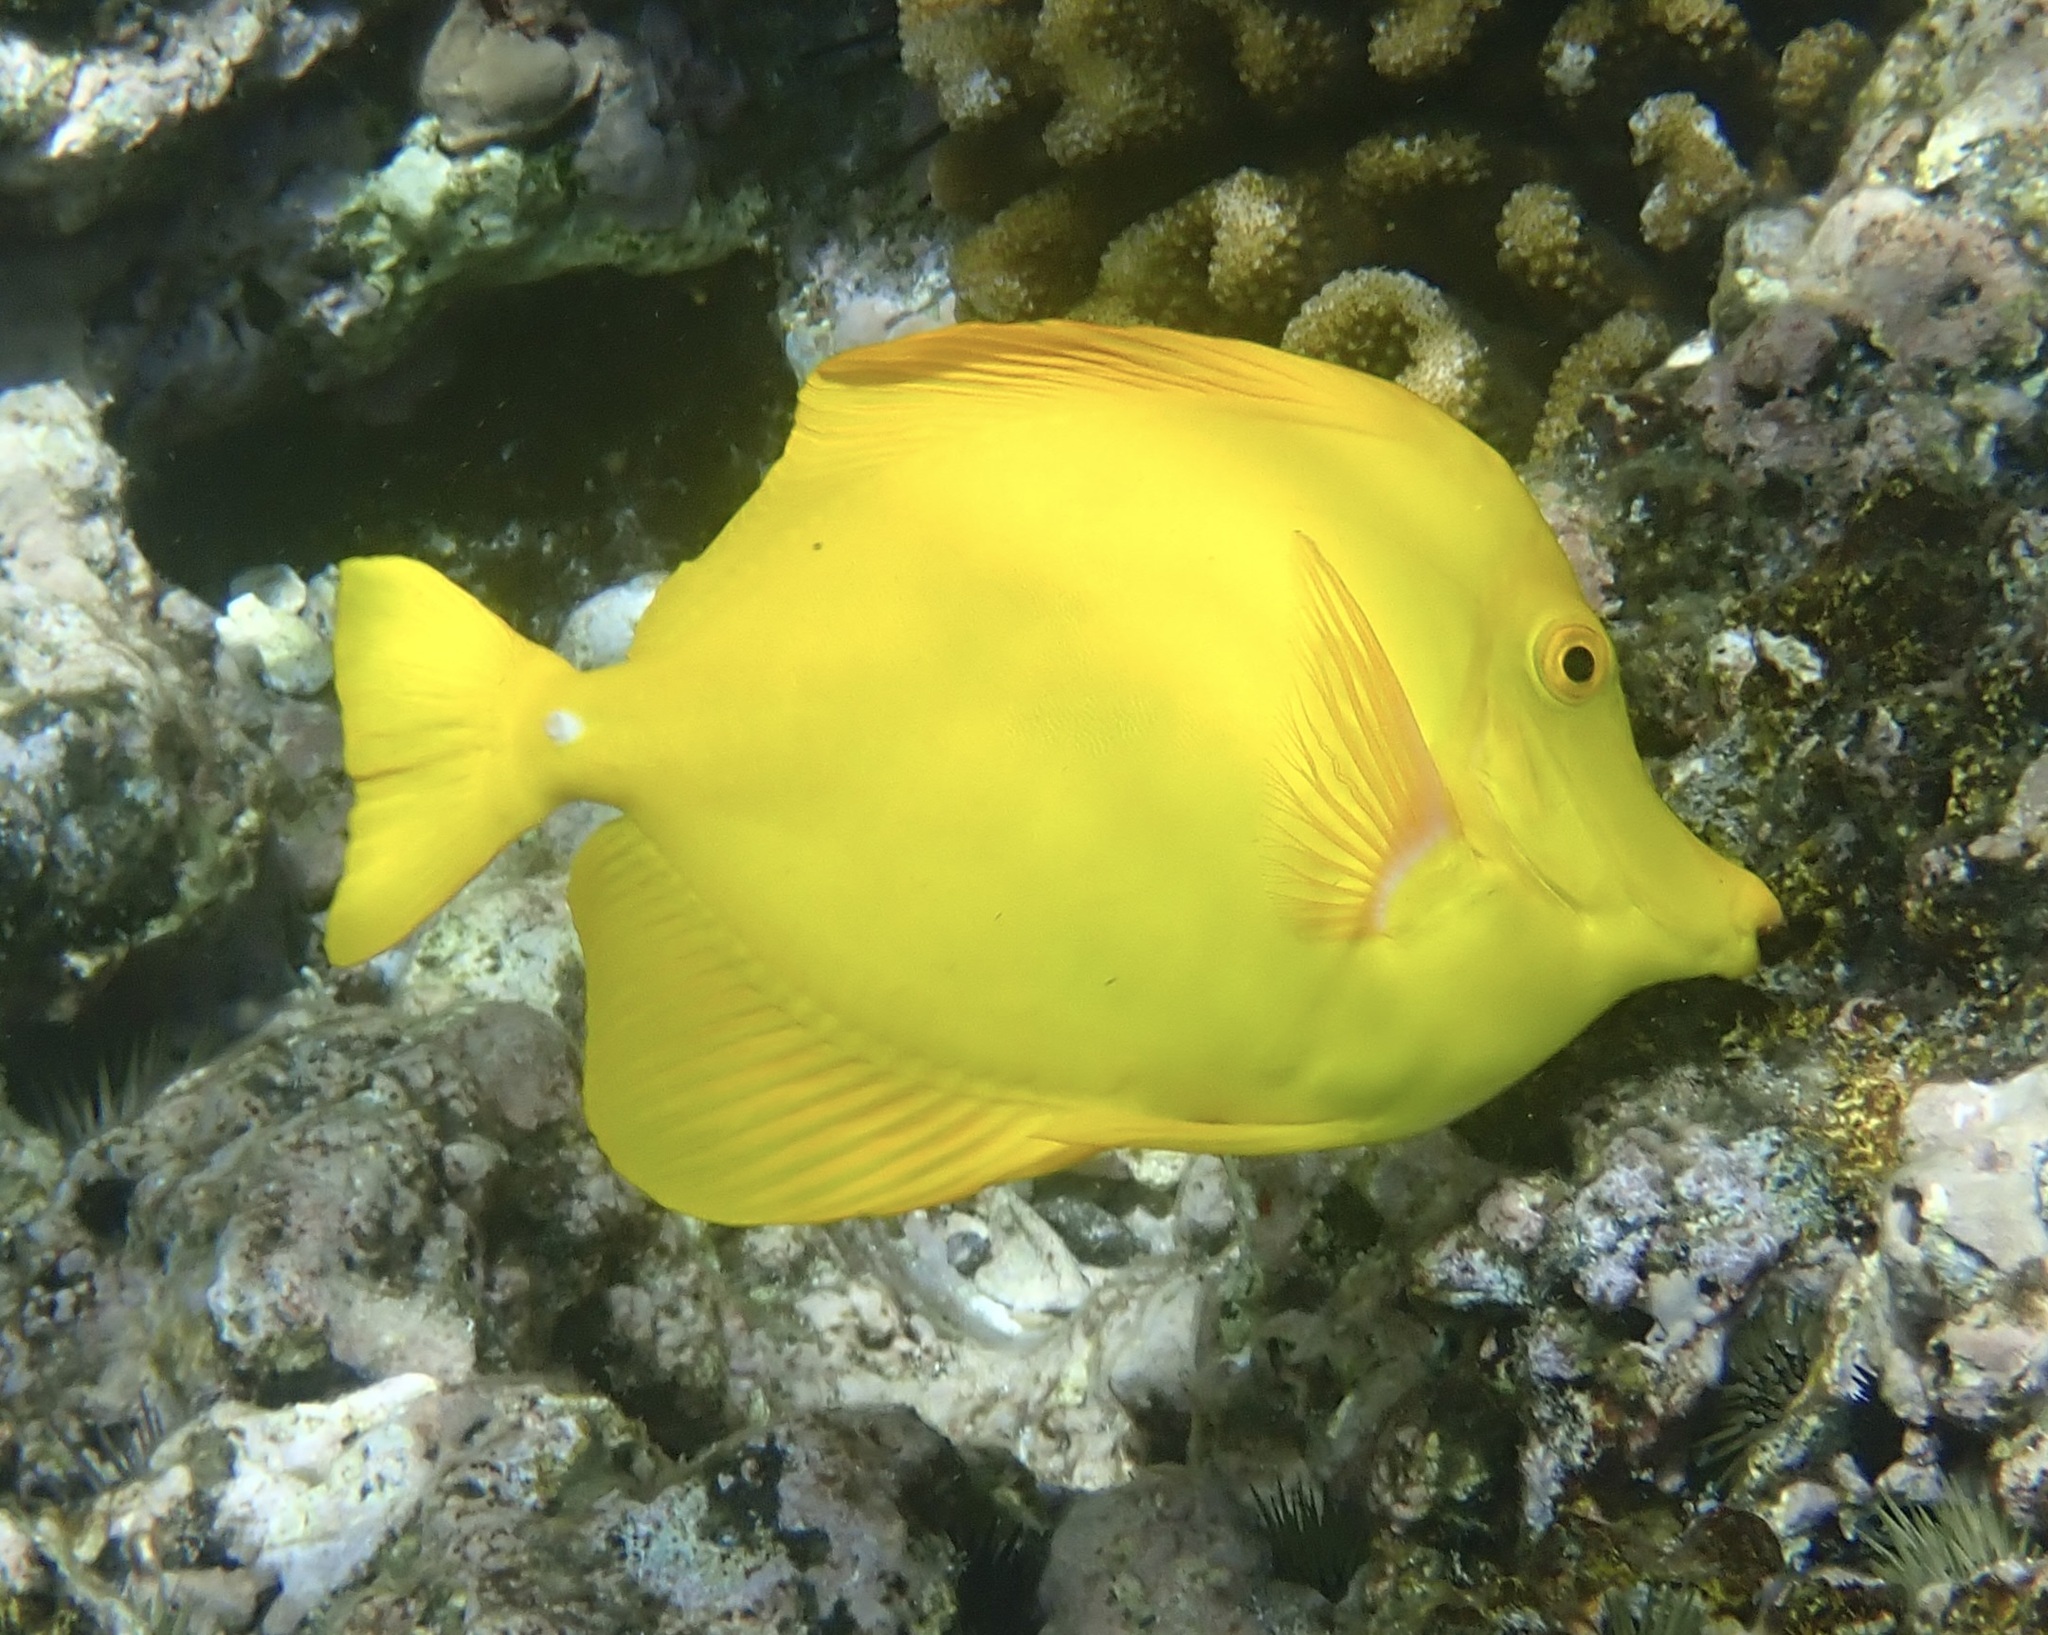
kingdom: Animalia
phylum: Chordata
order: Perciformes
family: Acanthuridae
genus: Zebrasoma
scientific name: Zebrasoma flavescens
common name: Yellow tang
